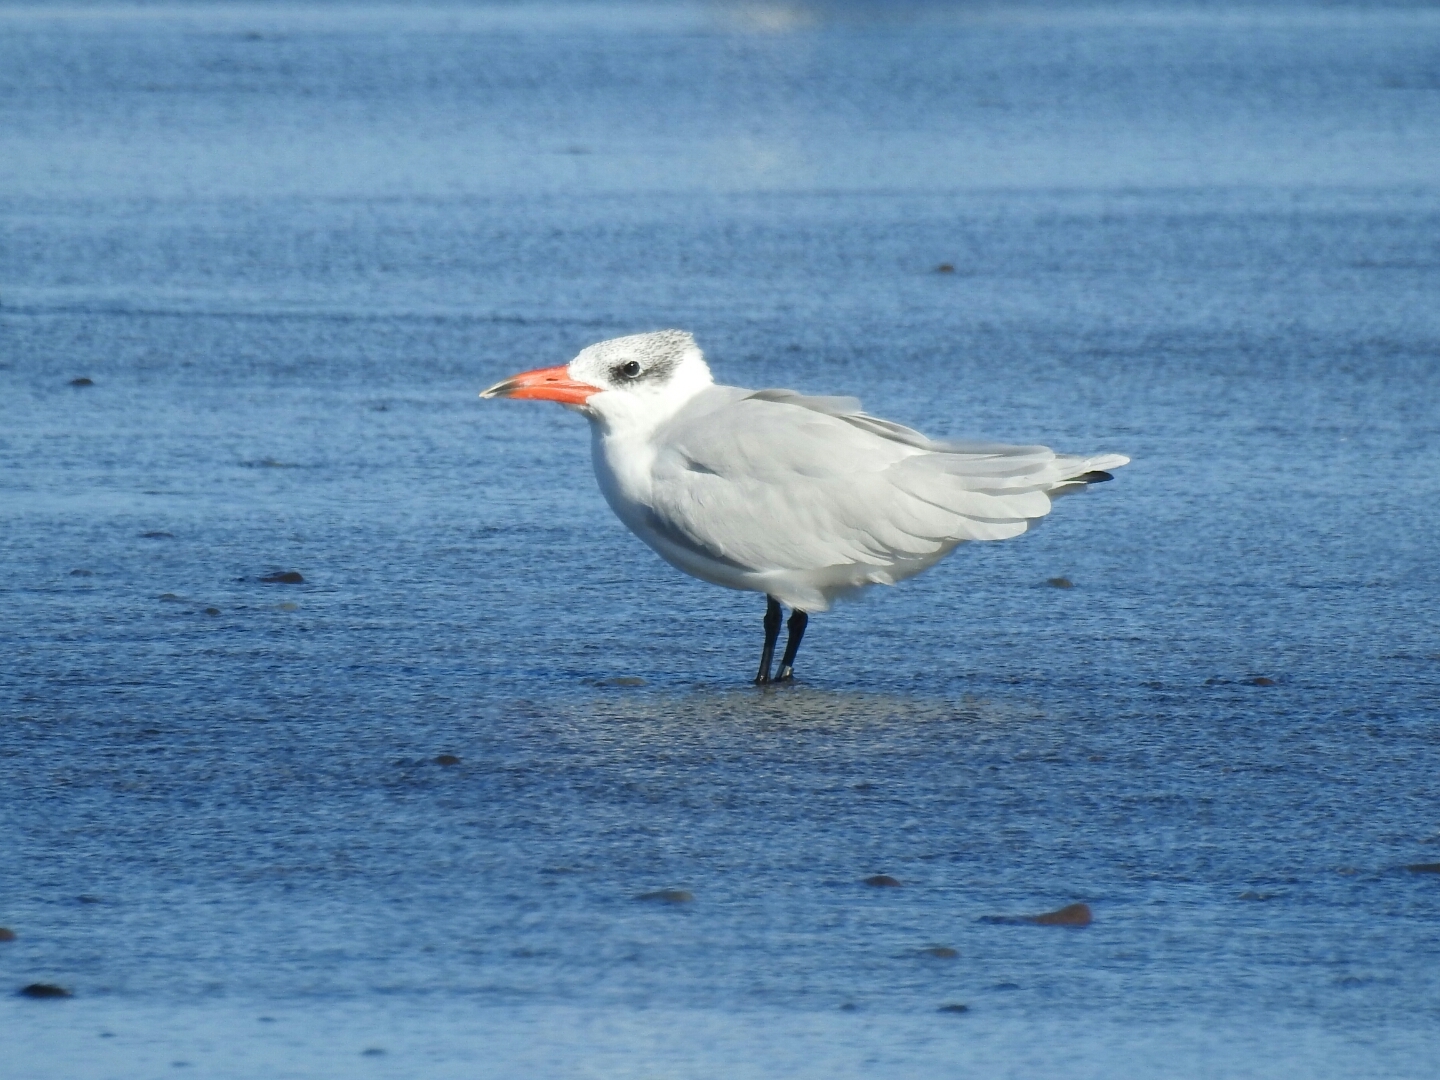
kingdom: Animalia
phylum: Chordata
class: Aves
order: Charadriiformes
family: Laridae
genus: Hydroprogne
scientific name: Hydroprogne caspia
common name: Caspian tern
